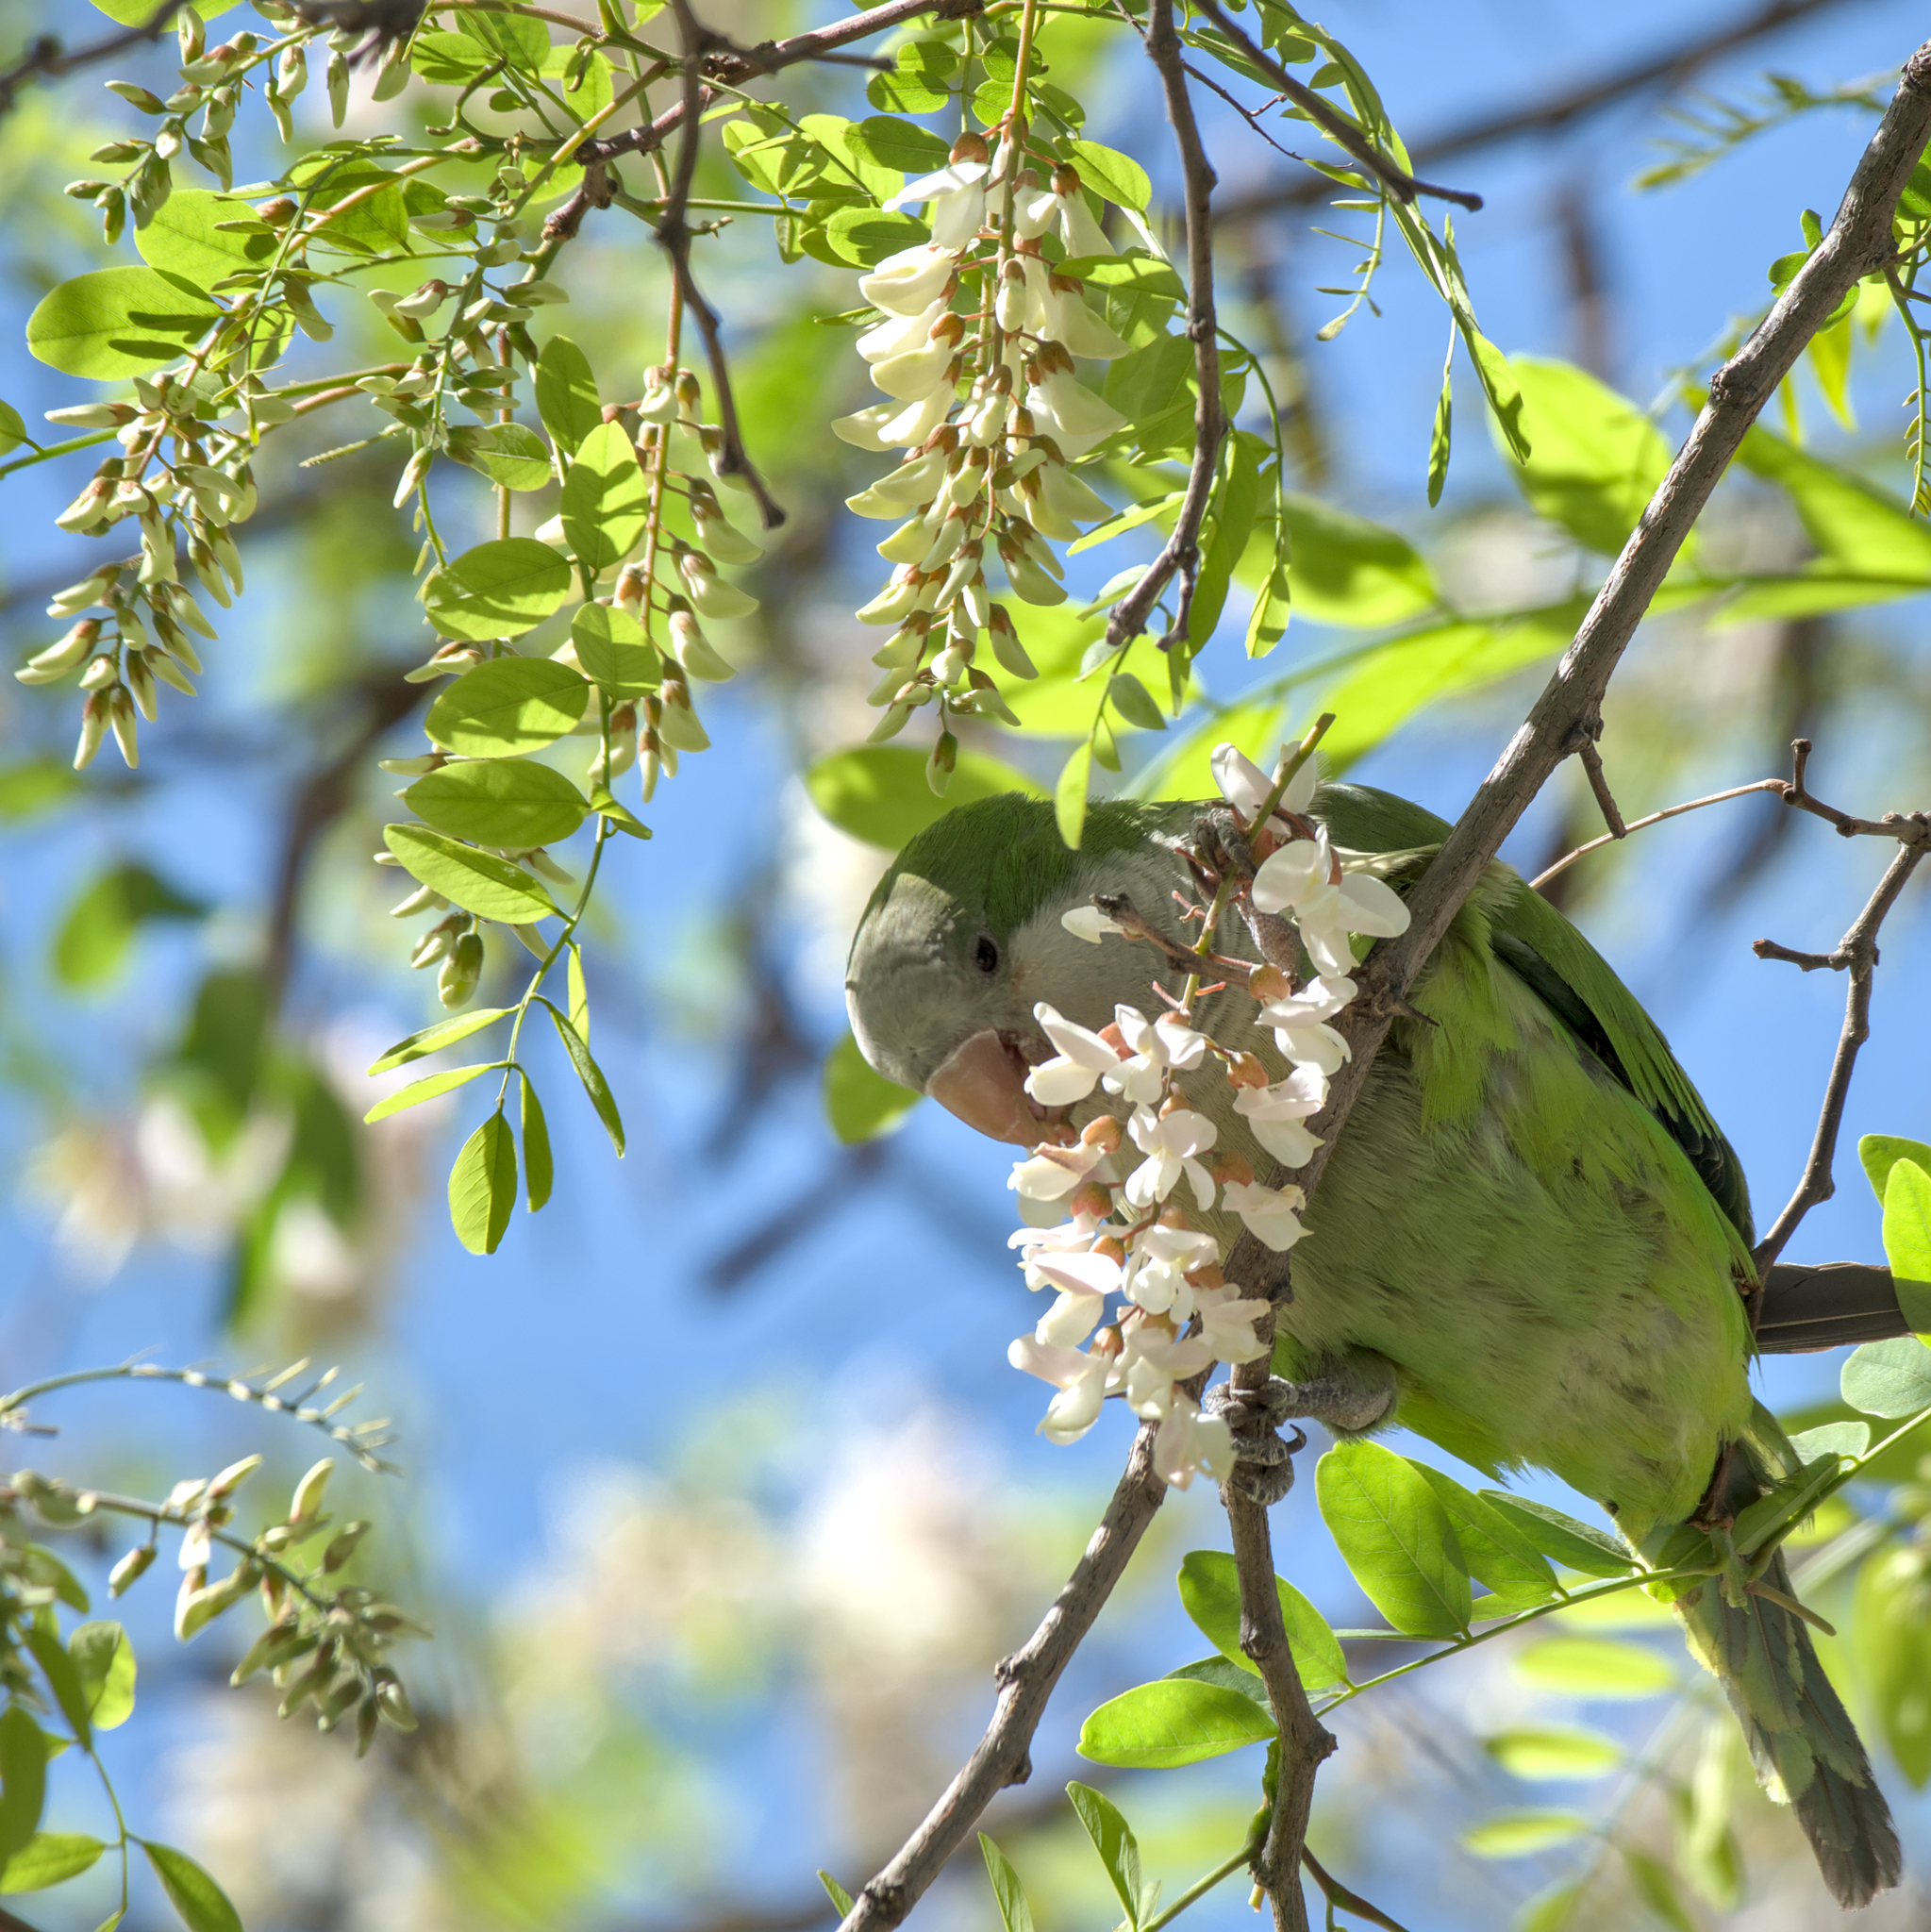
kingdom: Animalia
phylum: Chordata
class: Aves
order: Psittaciformes
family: Psittacidae
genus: Myiopsitta
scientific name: Myiopsitta monachus
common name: Monk parakeet
